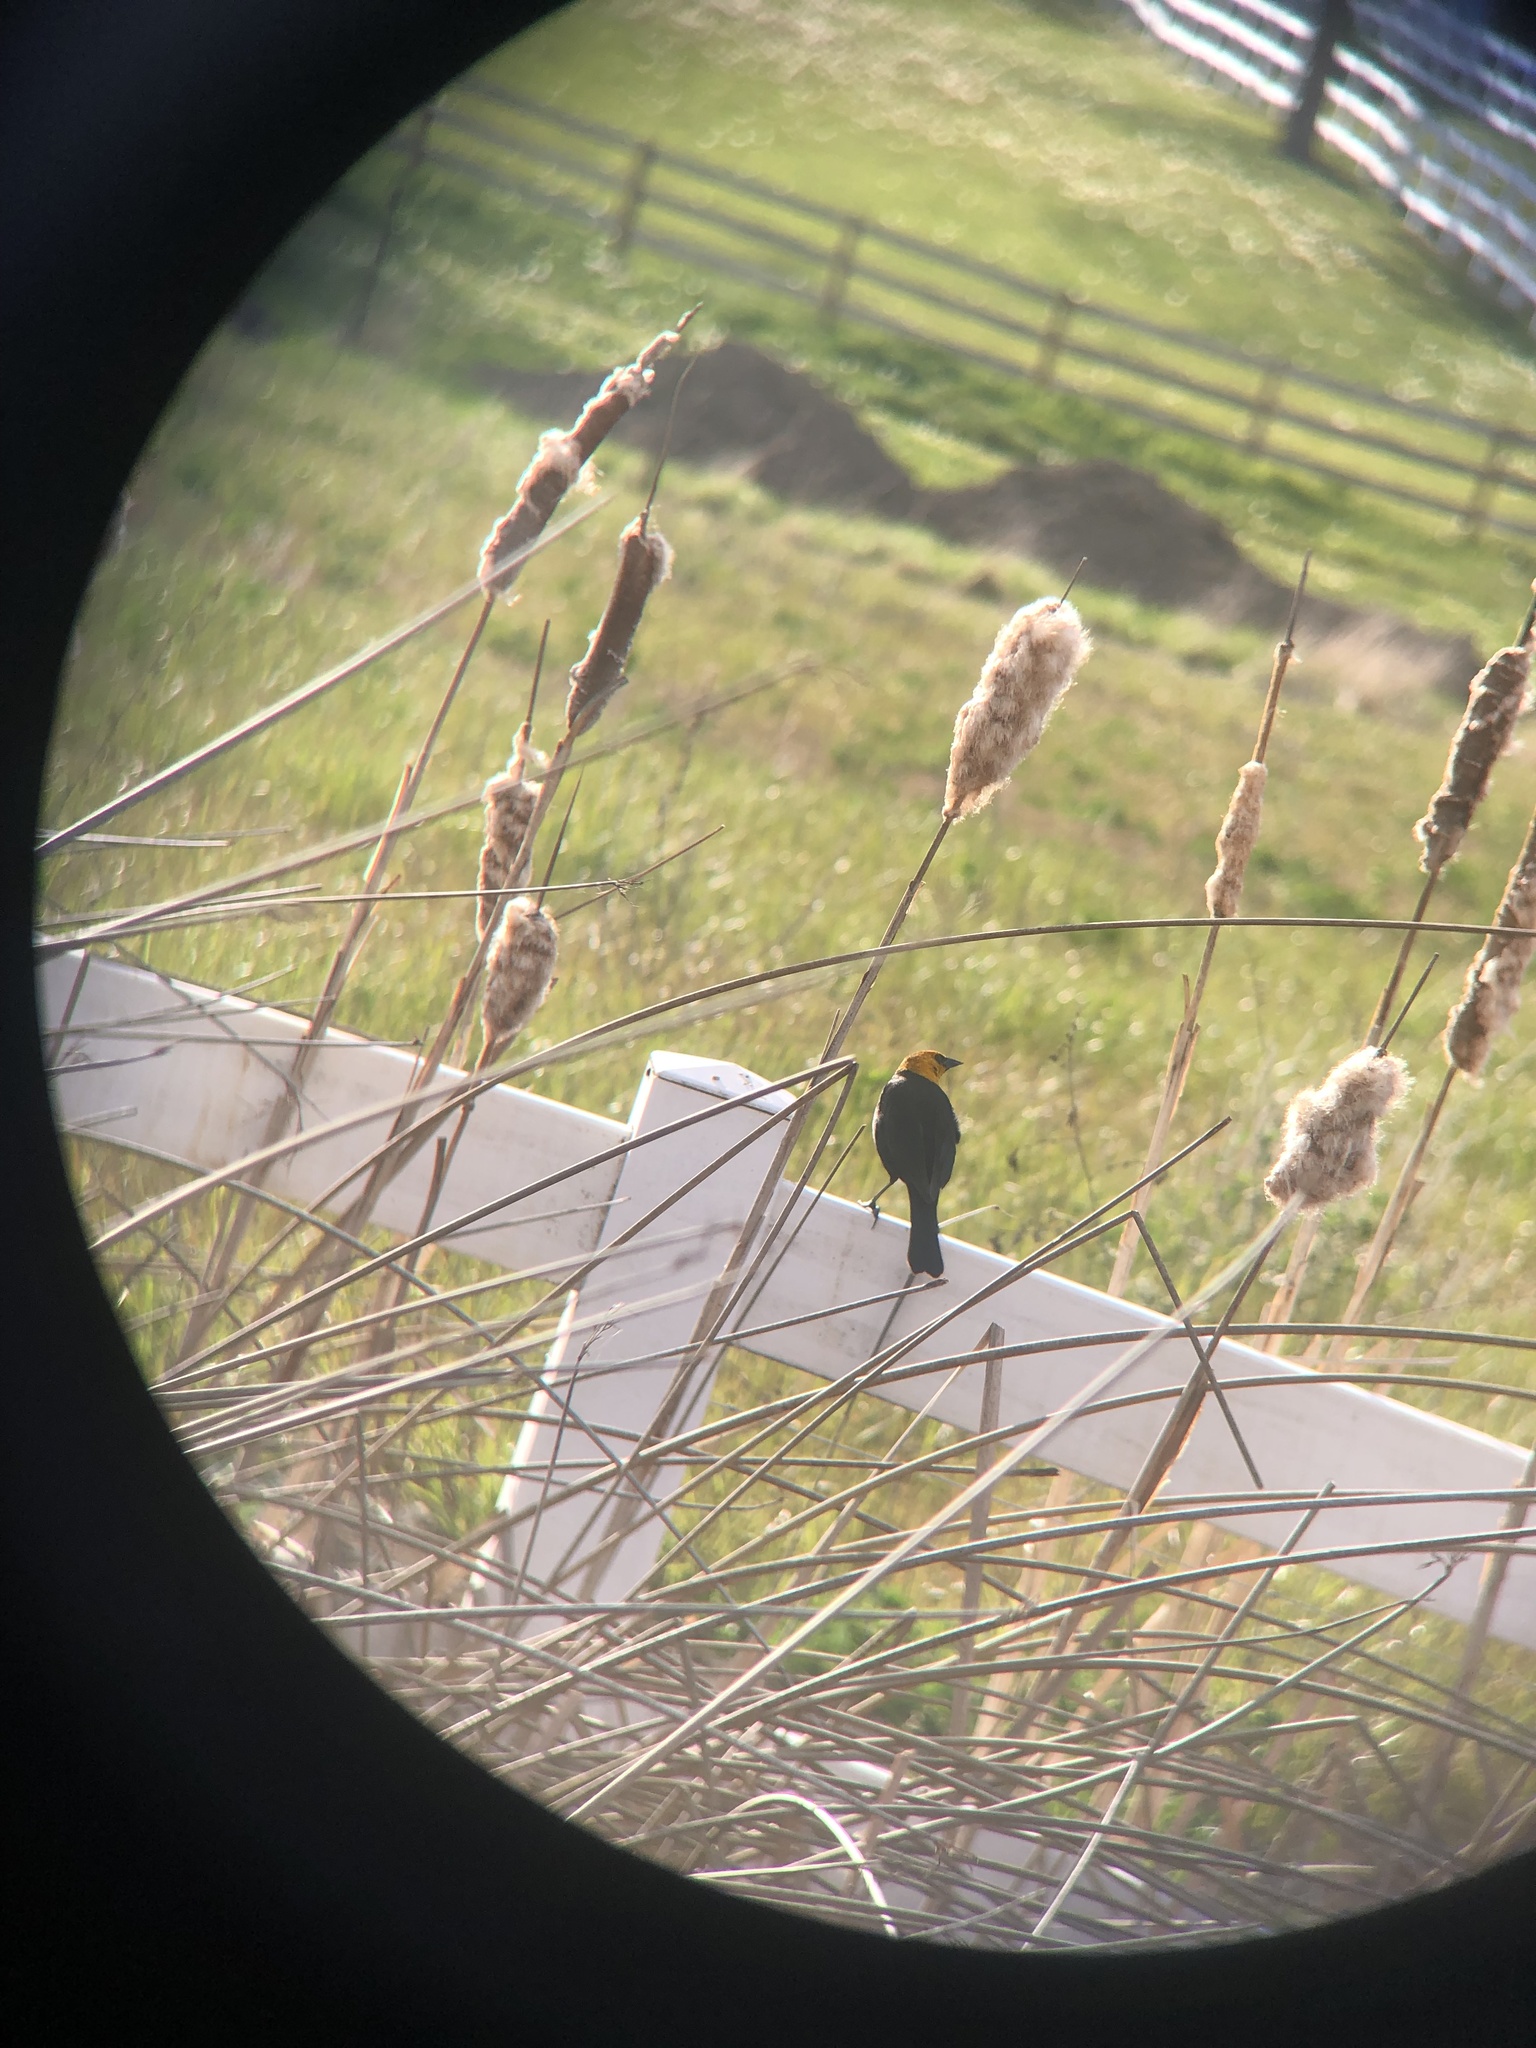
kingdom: Animalia
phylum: Chordata
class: Aves
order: Passeriformes
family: Icteridae
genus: Xanthocephalus
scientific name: Xanthocephalus xanthocephalus
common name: Yellow-headed blackbird
